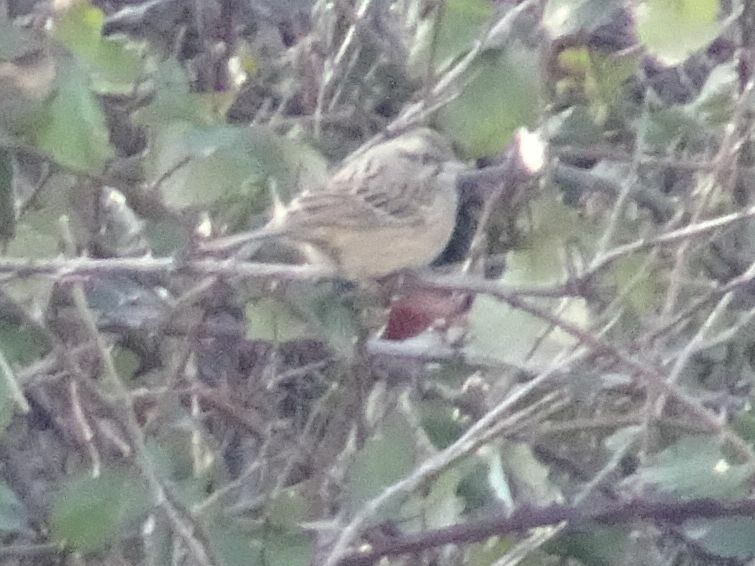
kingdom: Animalia
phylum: Chordata
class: Aves
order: Passeriformes
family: Emberizidae
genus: Emberiza
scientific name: Emberiza cia
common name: Rock bunting
